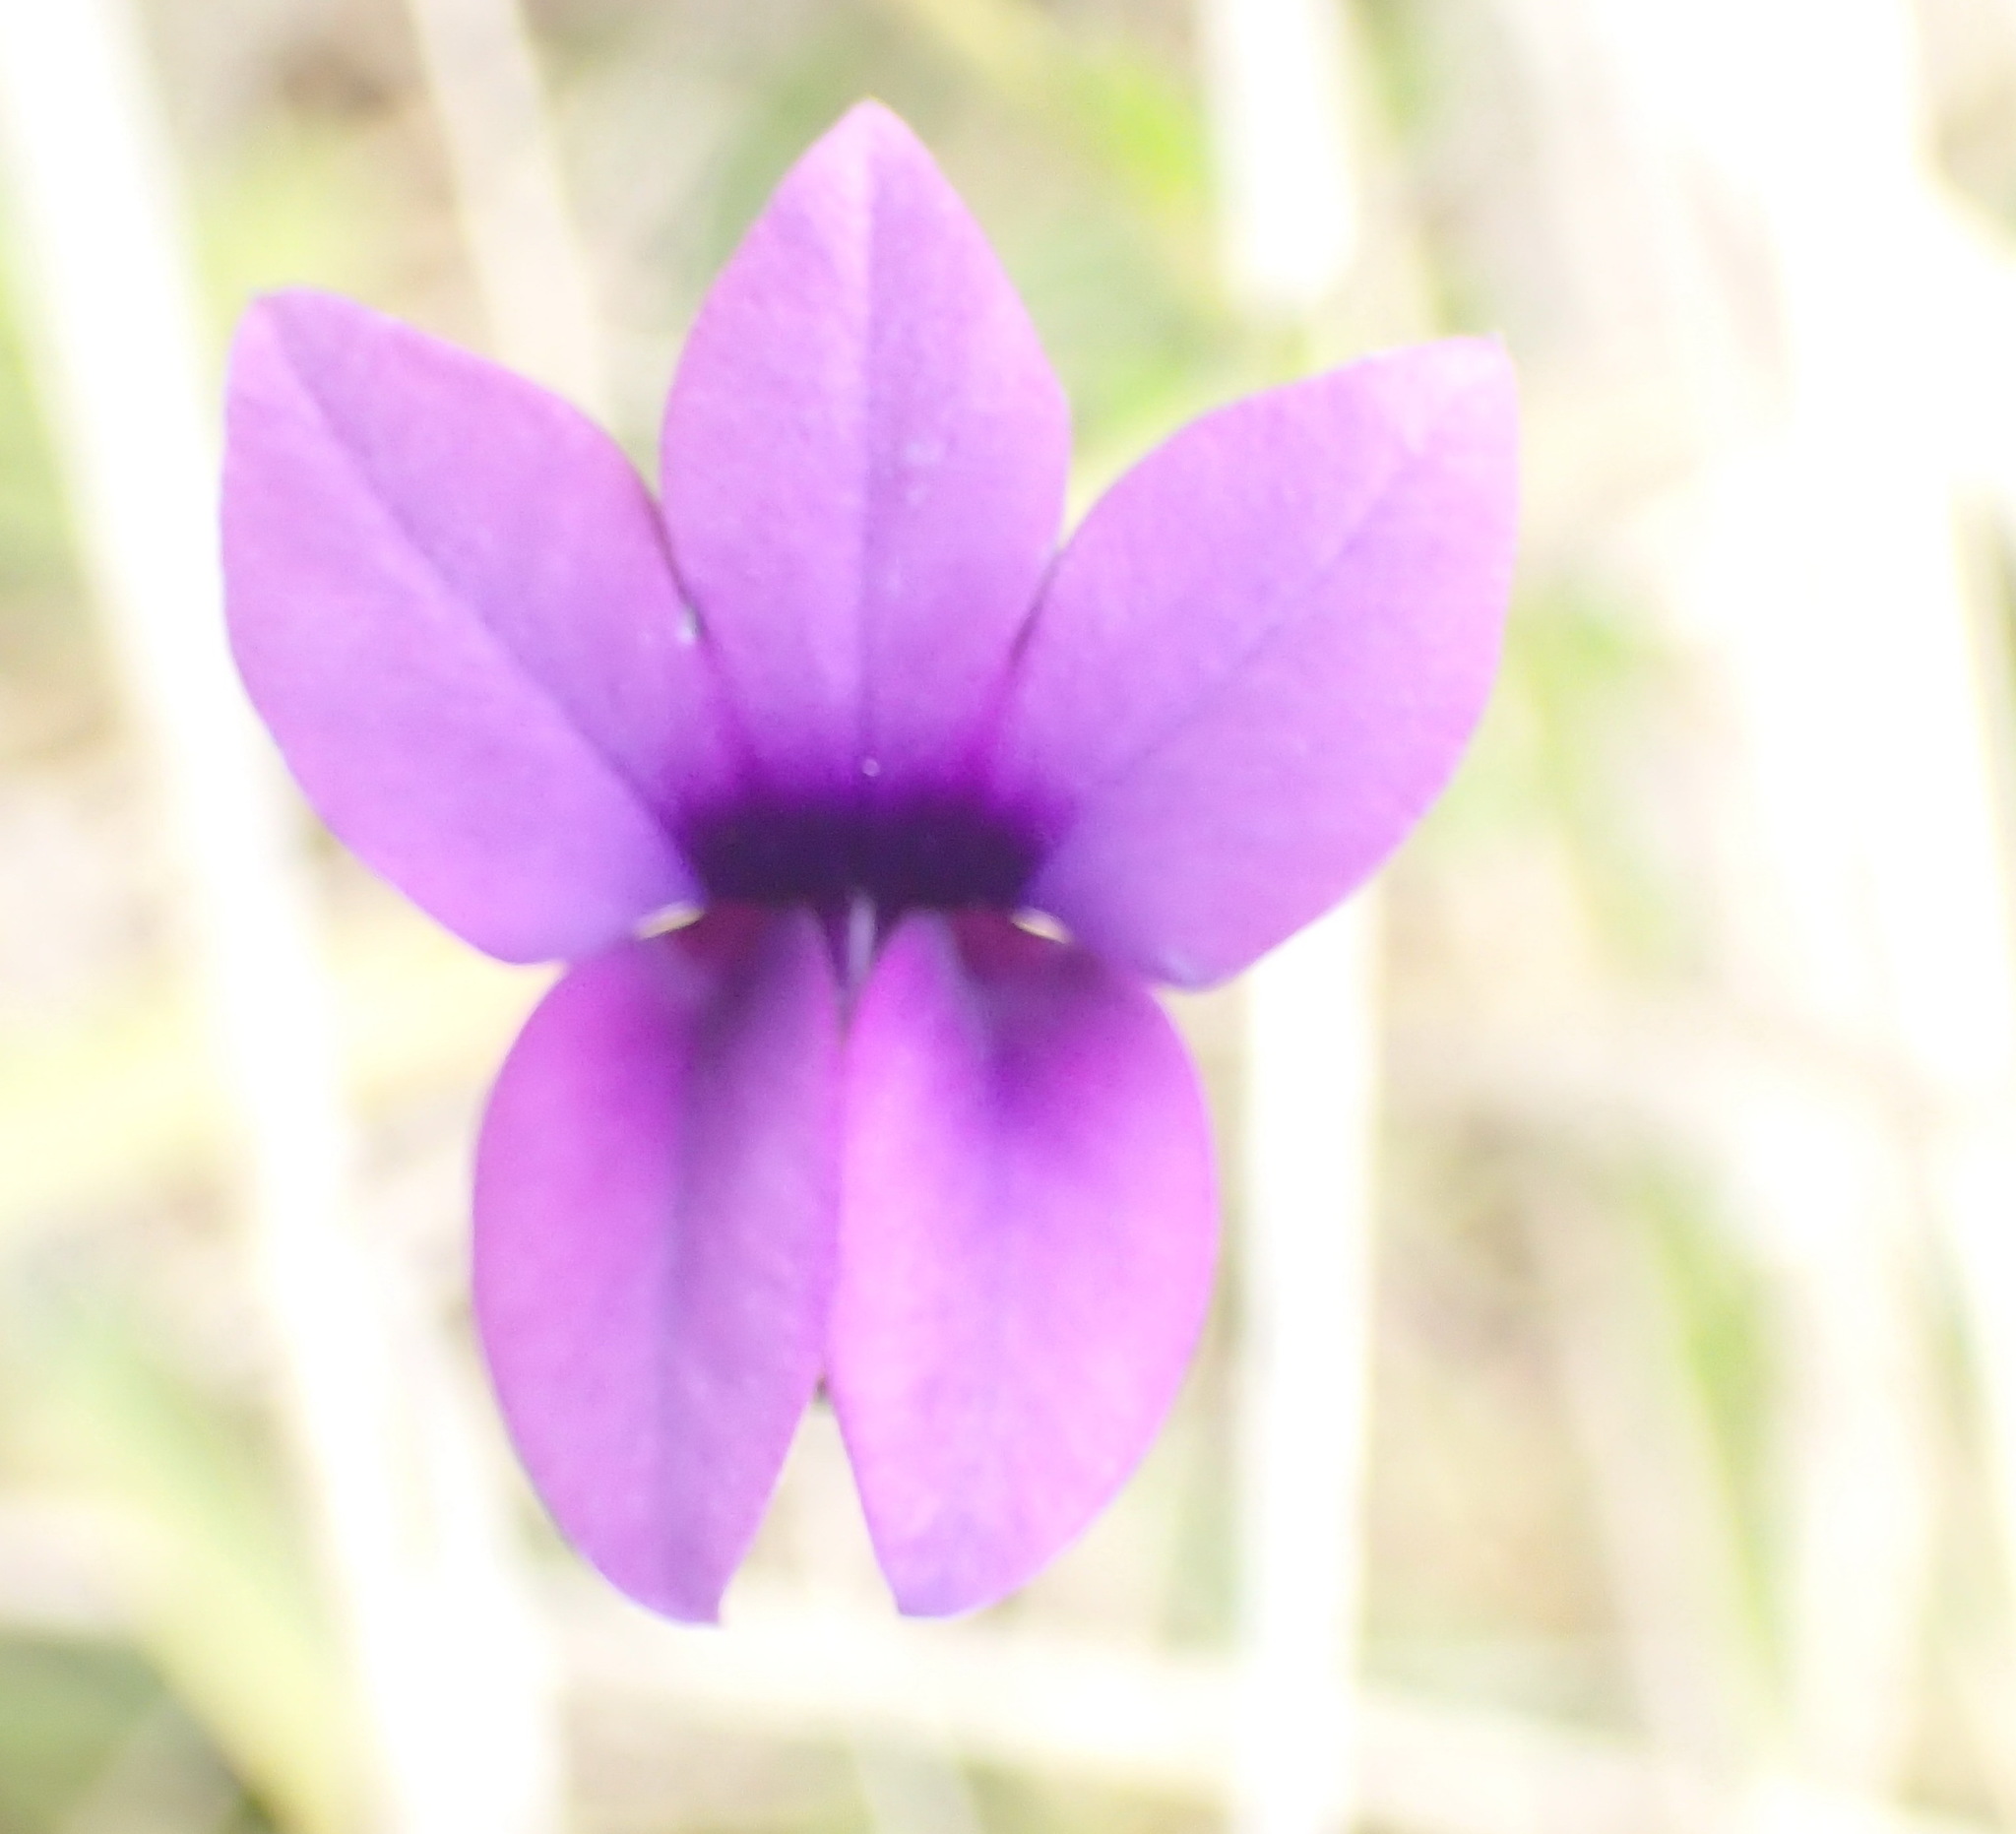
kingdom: Plantae
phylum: Tracheophyta
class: Magnoliopsida
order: Asterales
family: Campanulaceae
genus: Monopsis
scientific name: Monopsis unidentata
